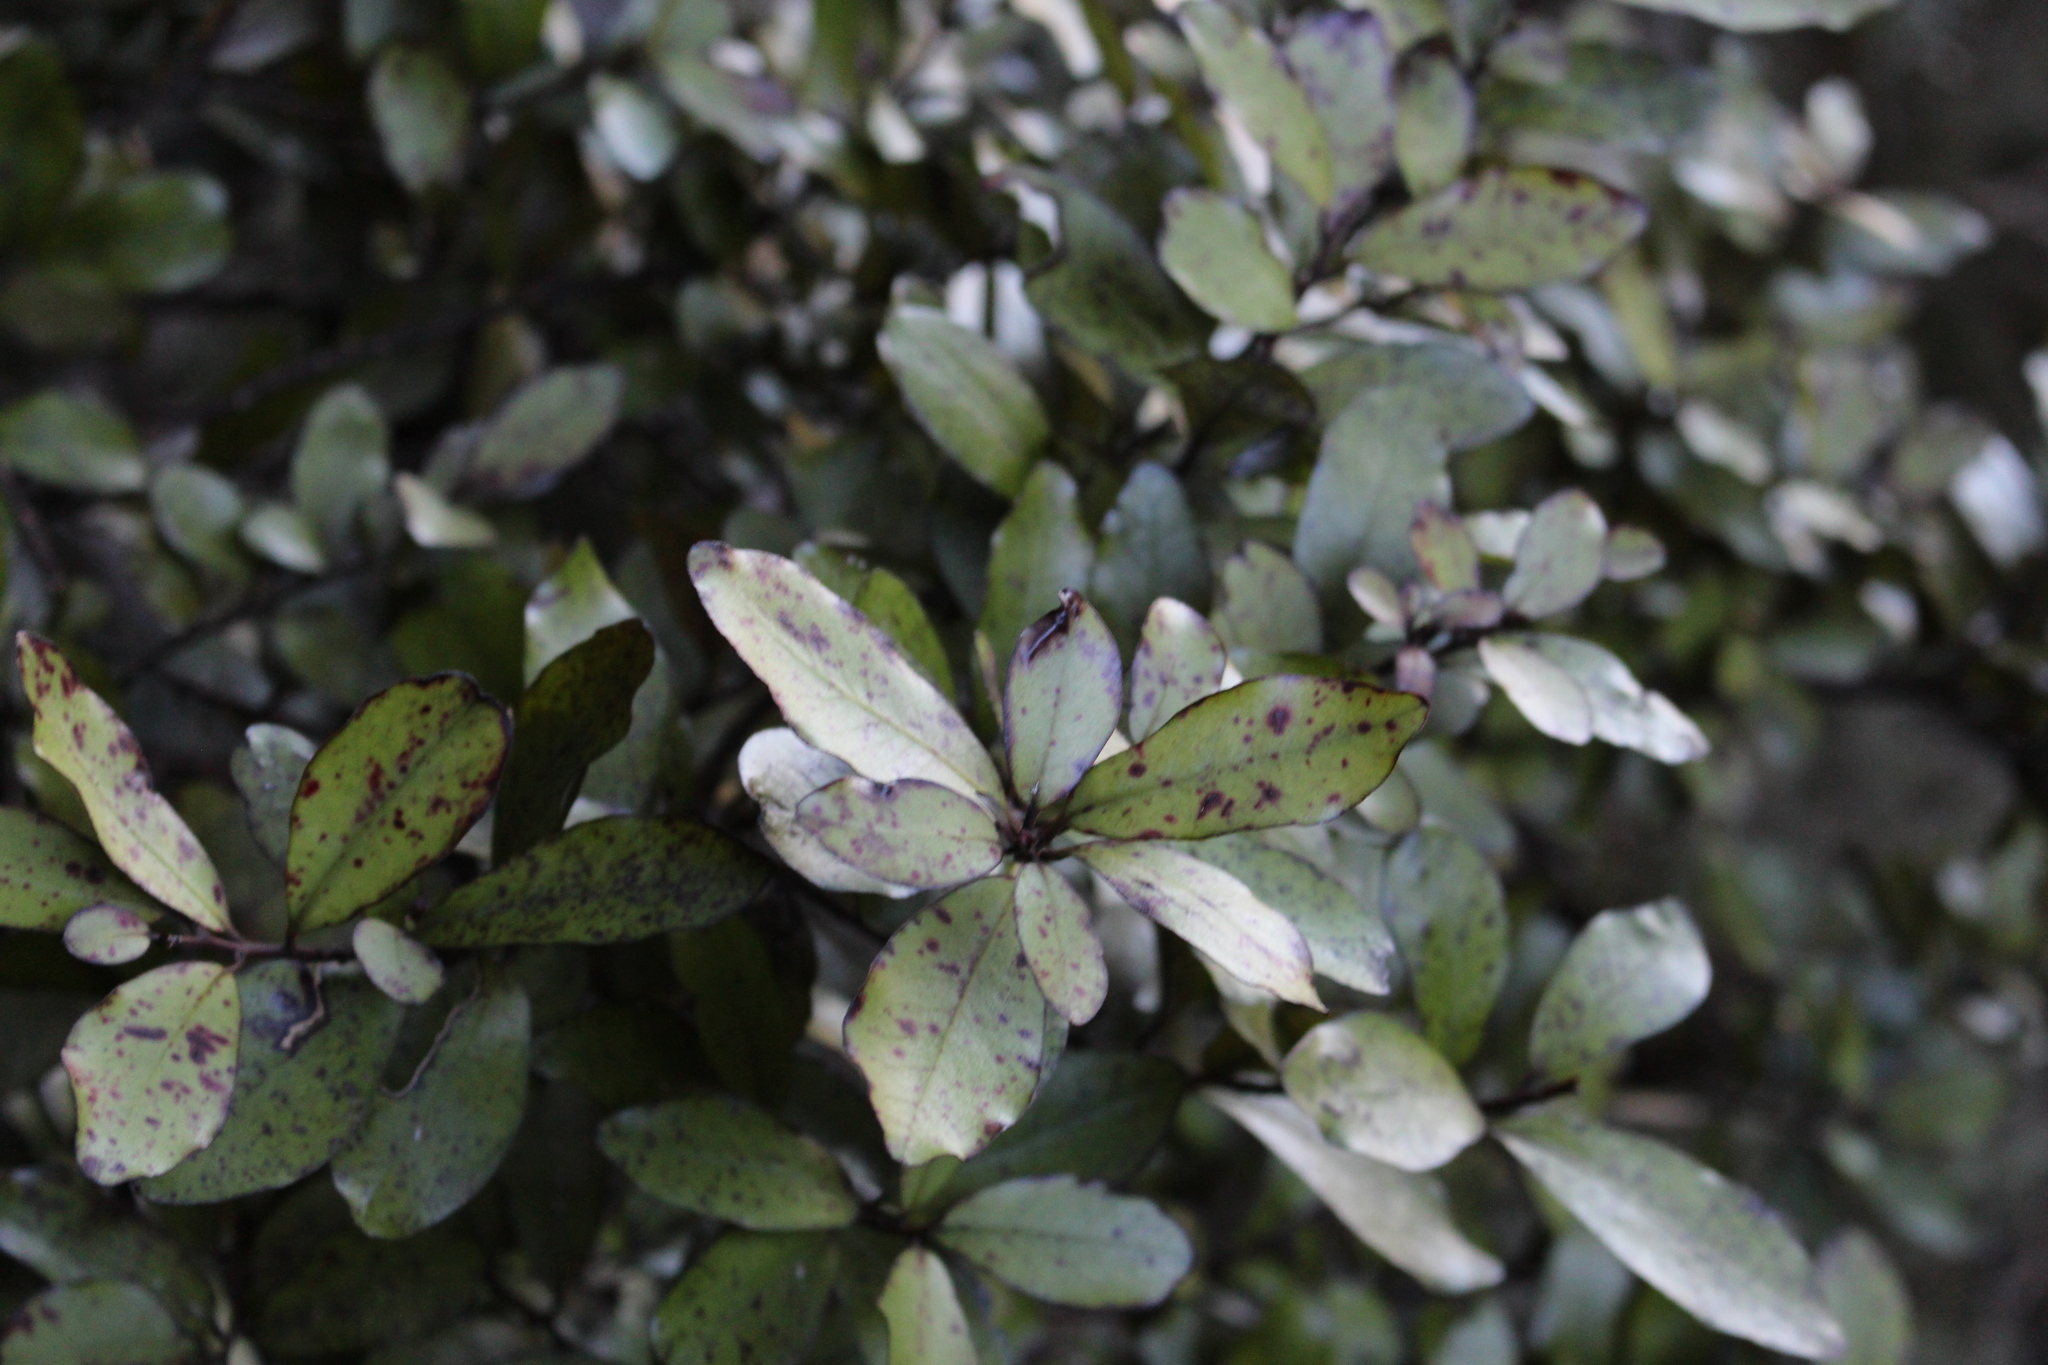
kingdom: Plantae
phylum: Tracheophyta
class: Magnoliopsida
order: Canellales
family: Winteraceae
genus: Pseudowintera
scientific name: Pseudowintera colorata
